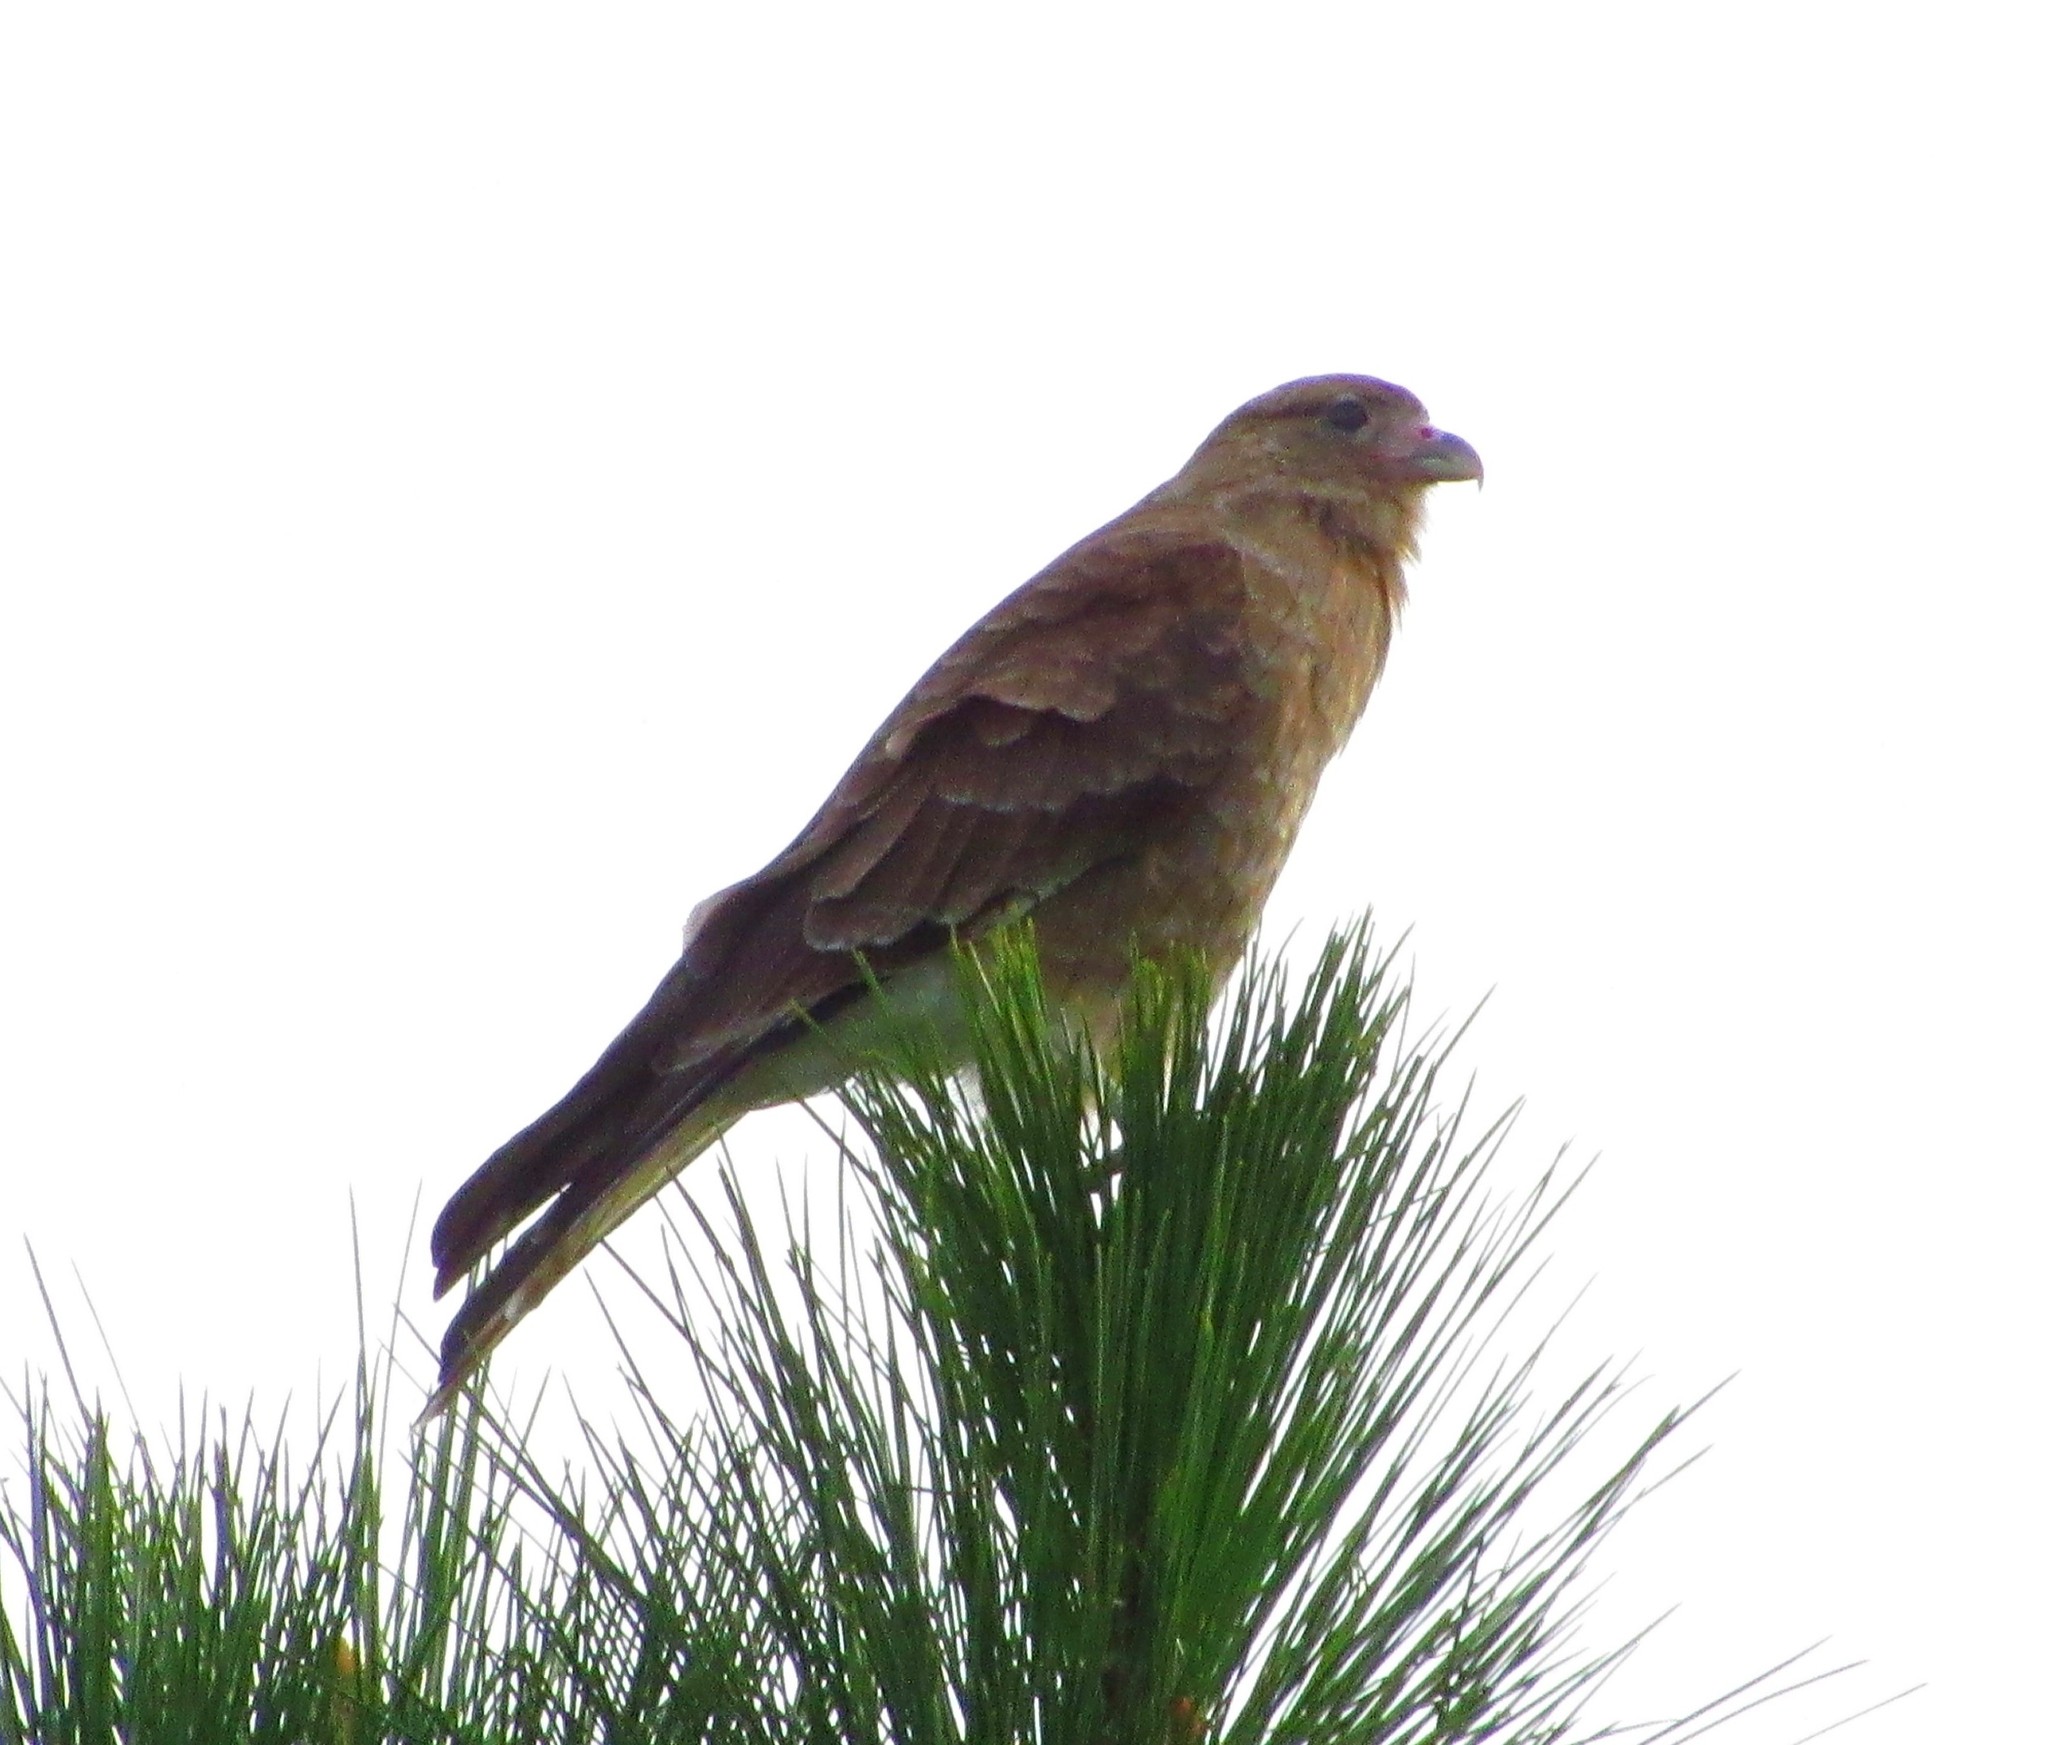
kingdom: Animalia
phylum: Chordata
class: Aves
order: Falconiformes
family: Falconidae
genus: Daptrius
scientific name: Daptrius
